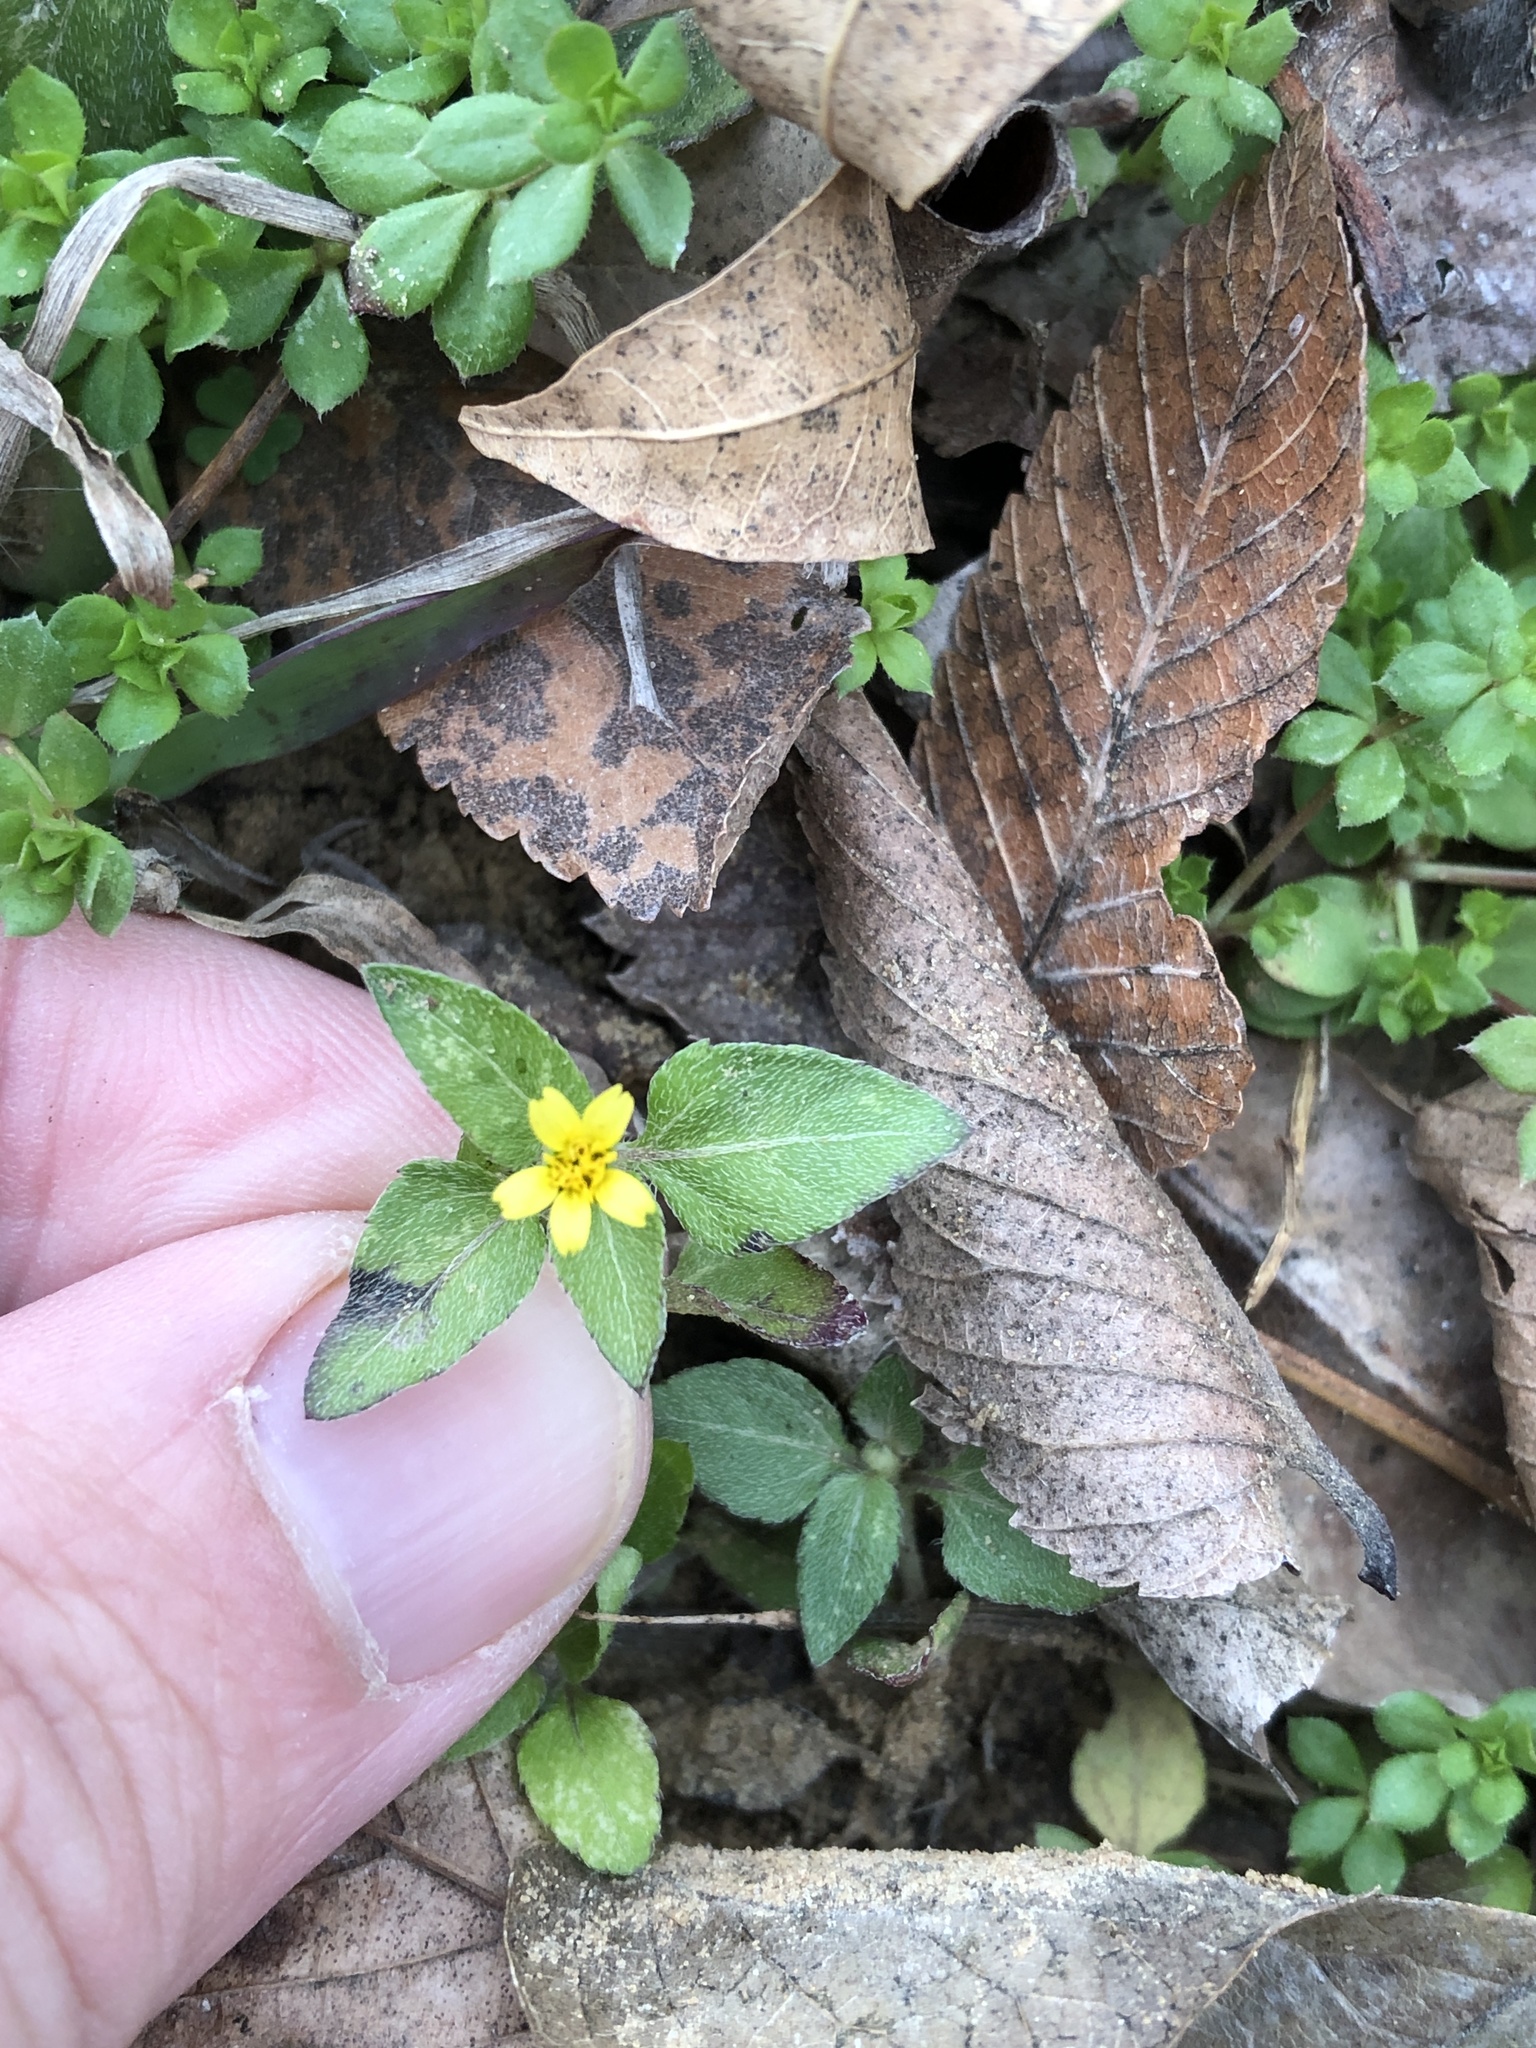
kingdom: Plantae
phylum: Tracheophyta
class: Magnoliopsida
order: Asterales
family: Asteraceae
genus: Calyptocarpus
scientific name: Calyptocarpus vialis
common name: Straggler daisy
